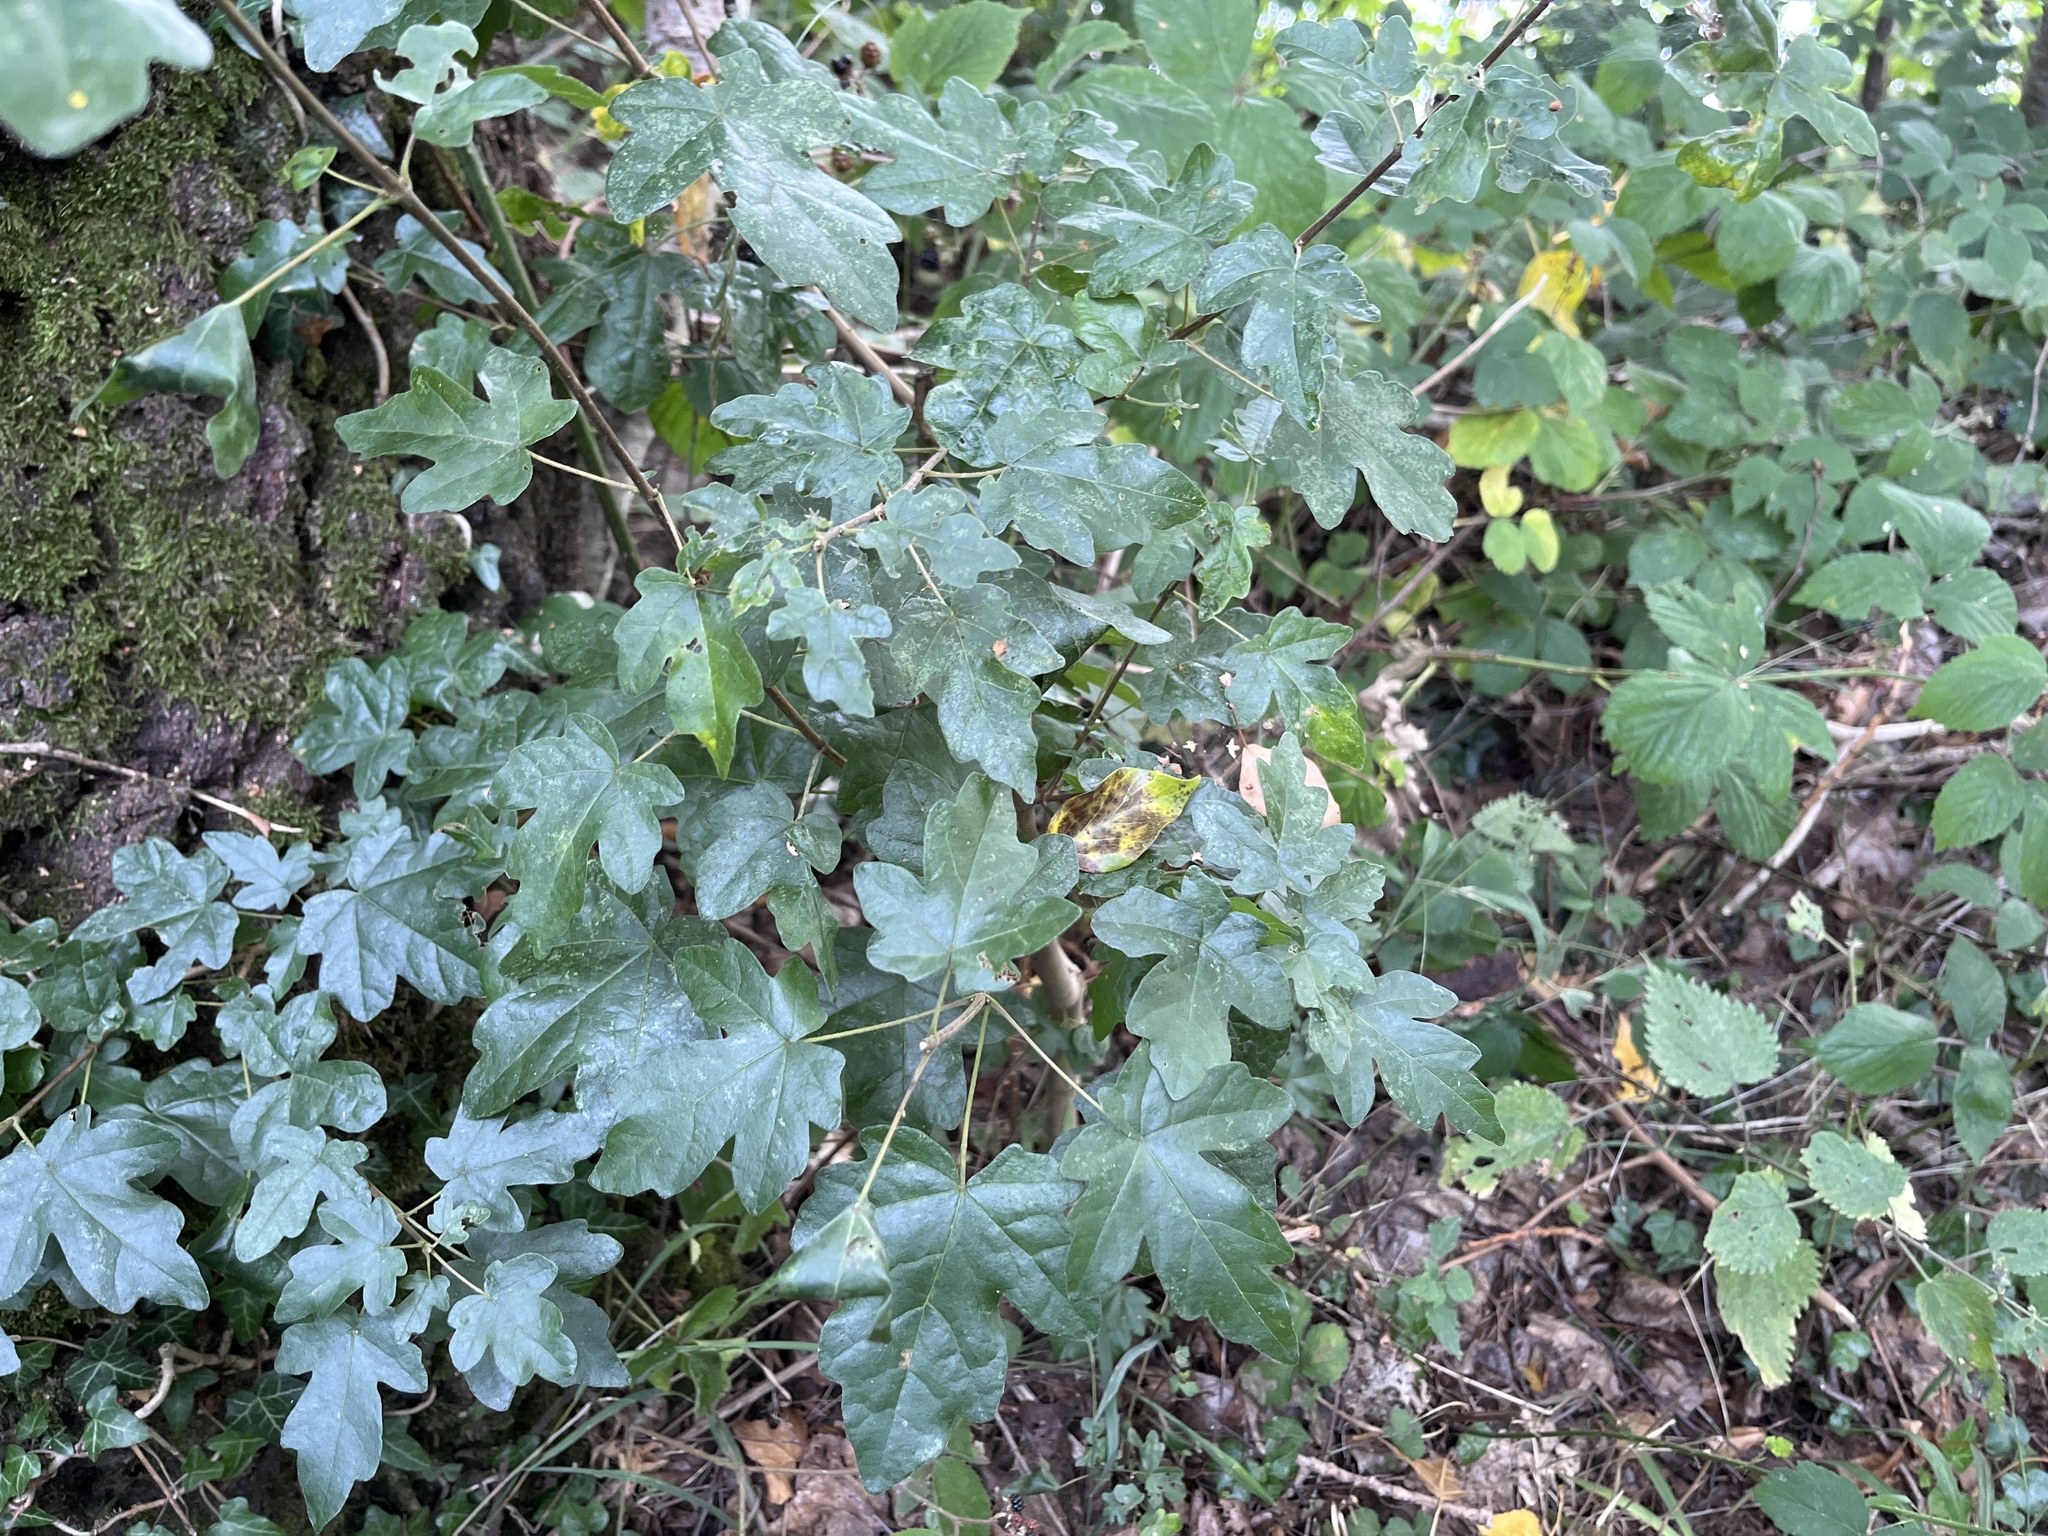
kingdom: Plantae
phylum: Tracheophyta
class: Magnoliopsida
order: Sapindales
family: Sapindaceae
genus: Acer
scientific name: Acer campestre
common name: Field maple
